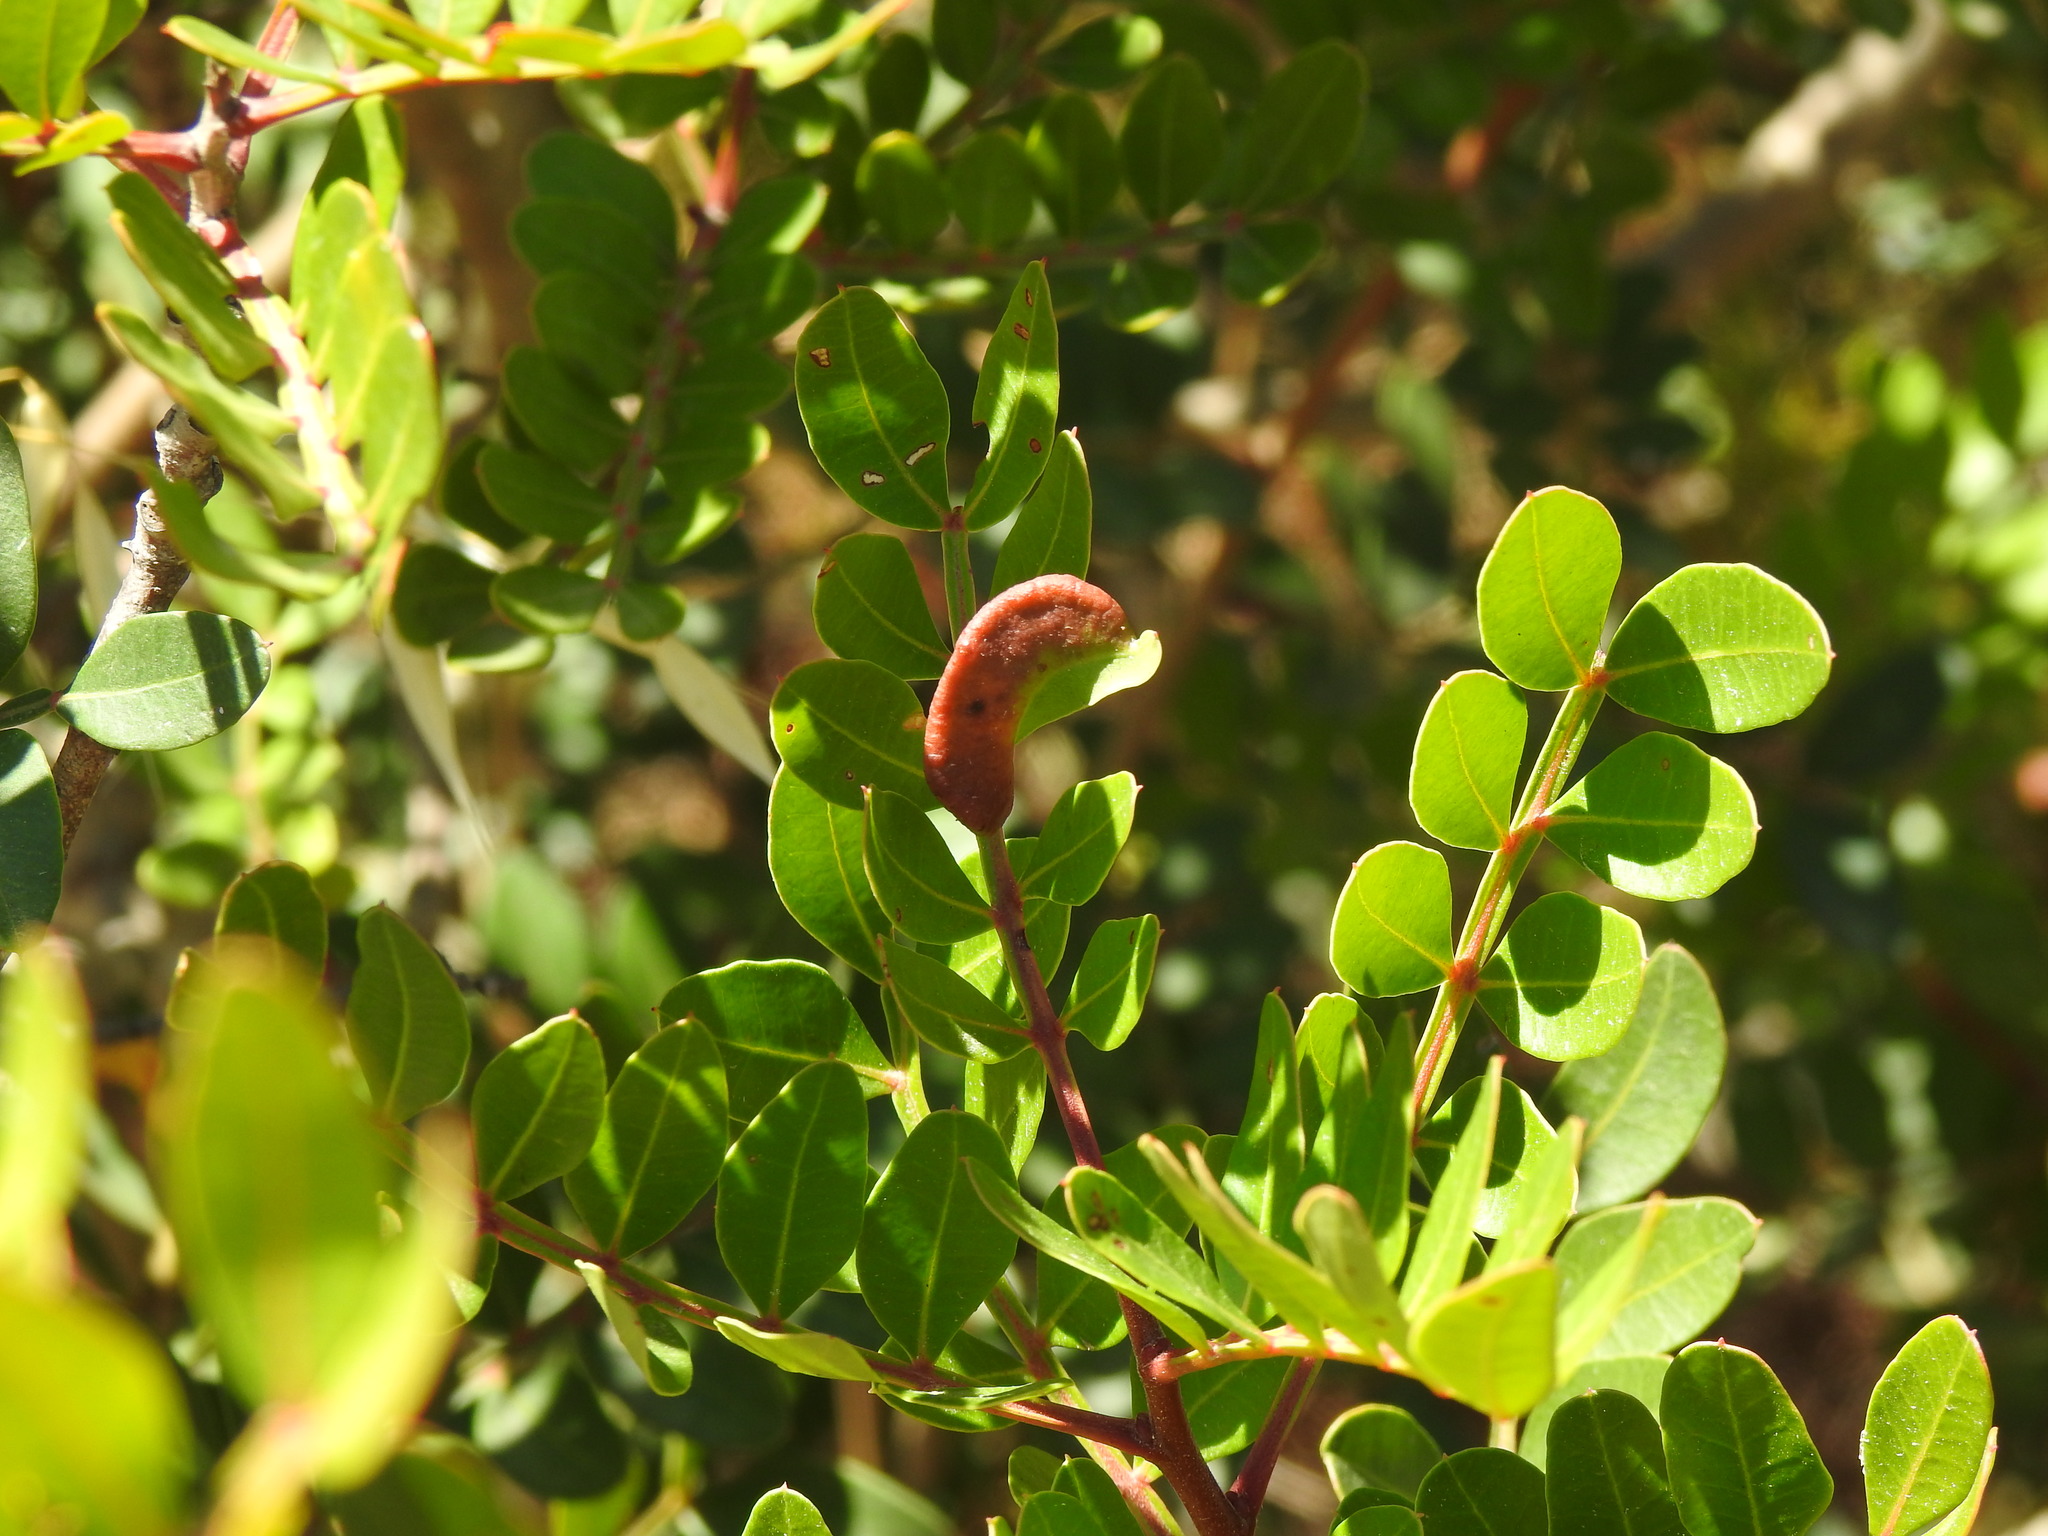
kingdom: Animalia
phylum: Arthropoda
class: Insecta
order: Hemiptera
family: Aphididae
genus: Aploneura
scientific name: Aploneura lentisci
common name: Mealy grass root aphid
